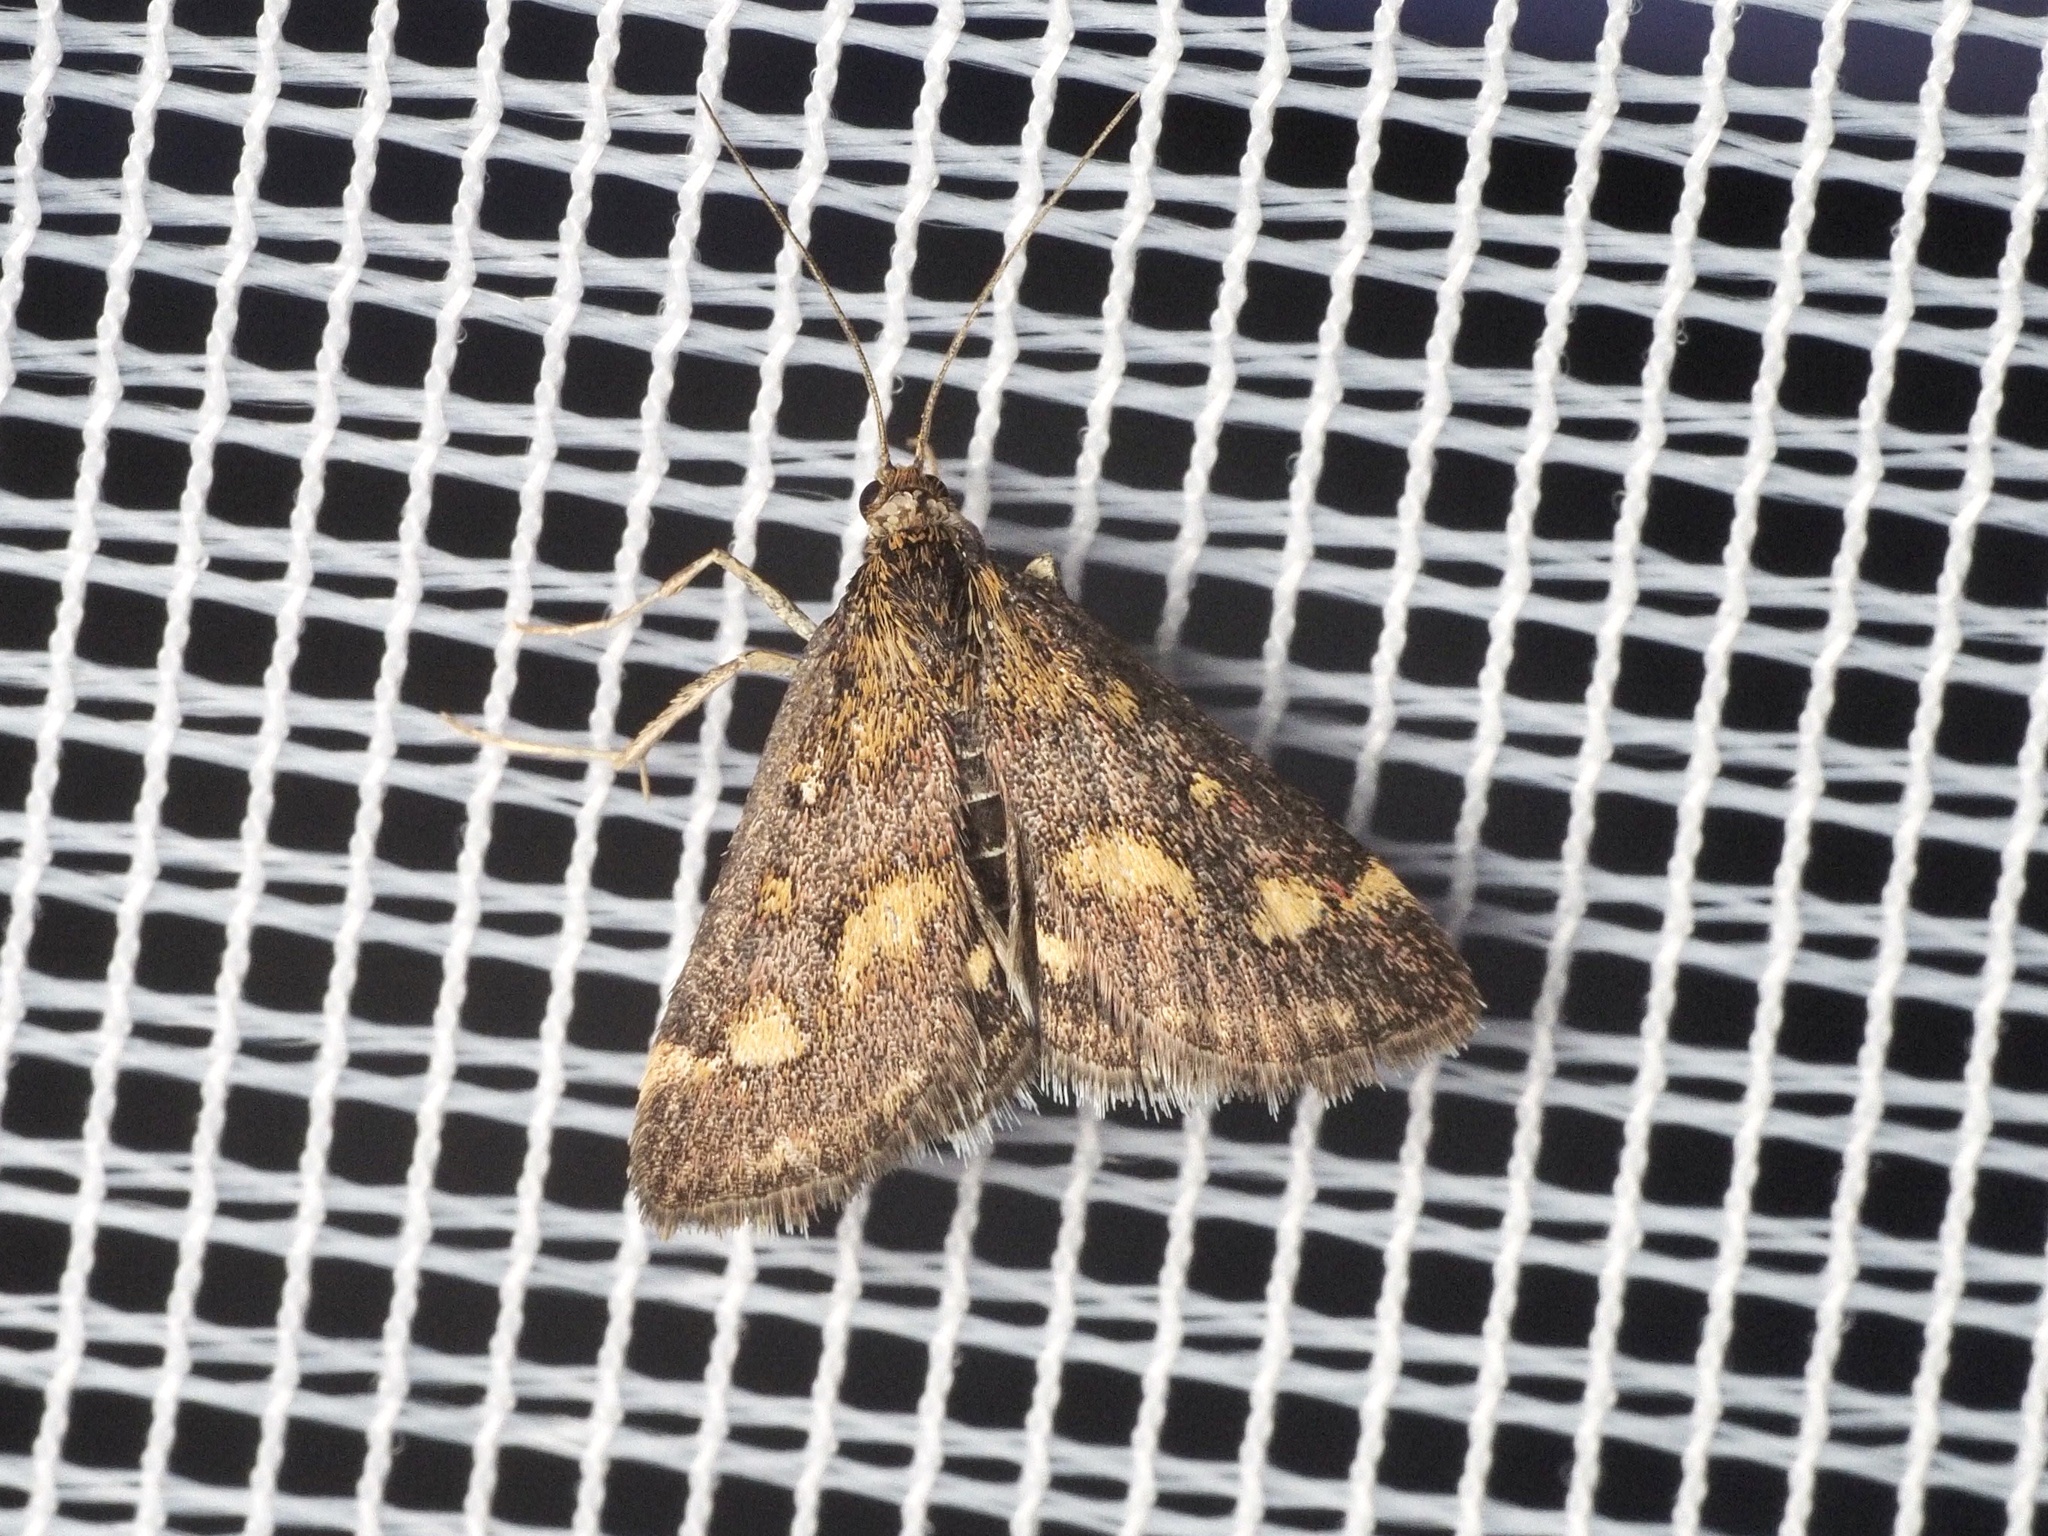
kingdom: Animalia
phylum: Arthropoda
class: Insecta
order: Lepidoptera
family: Crambidae
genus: Pyrausta
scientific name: Pyrausta purpuralis
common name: Common purple & gold
